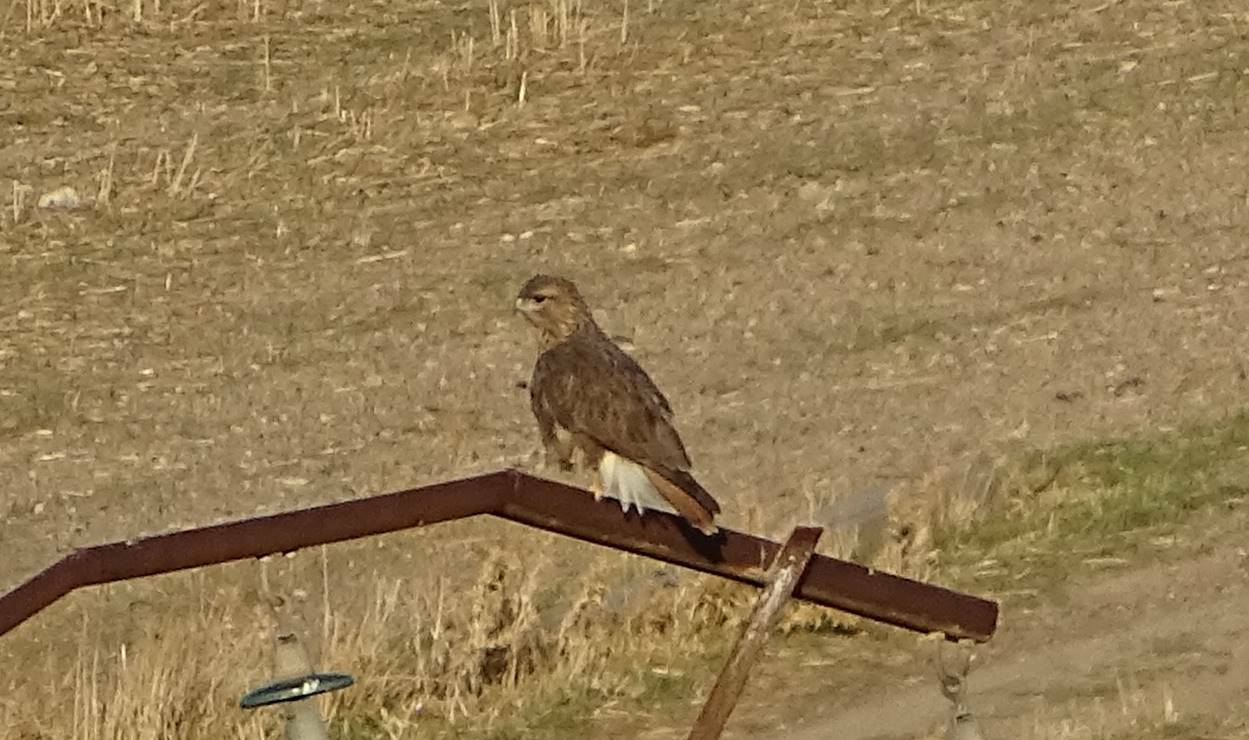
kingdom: Animalia
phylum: Chordata
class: Aves
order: Accipitriformes
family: Accipitridae
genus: Buteo
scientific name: Buteo rufinus
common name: Long-legged buzzard
